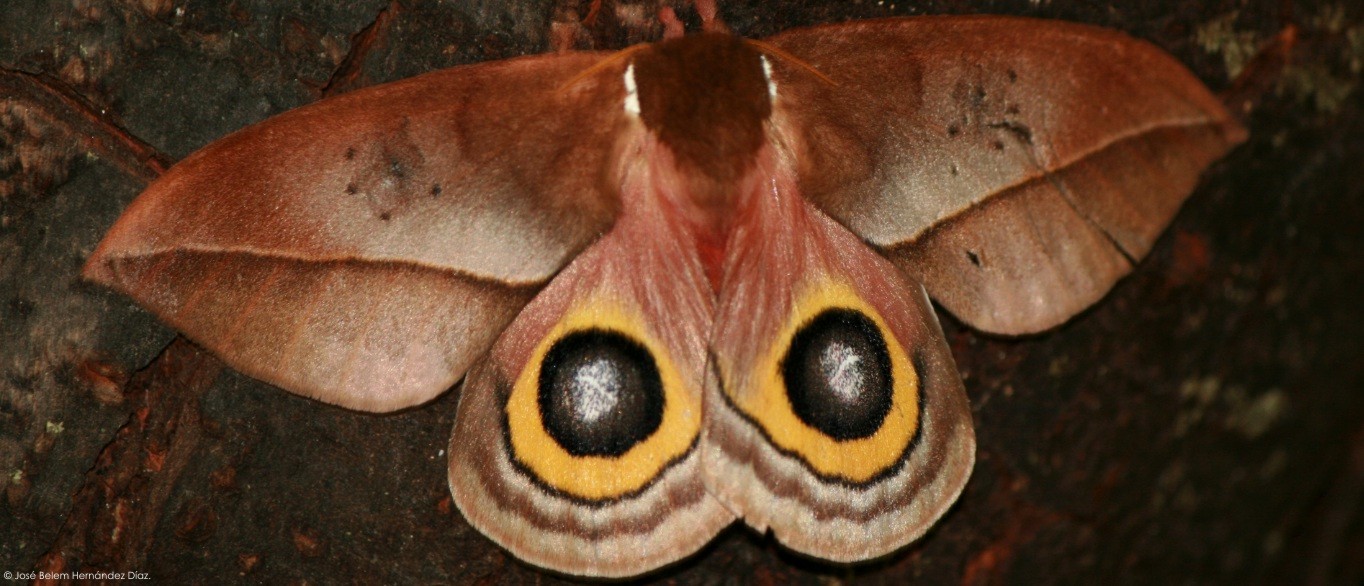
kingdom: Animalia
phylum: Arthropoda
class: Insecta
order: Lepidoptera
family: Saturniidae
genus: Automeris
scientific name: Automeris belti
